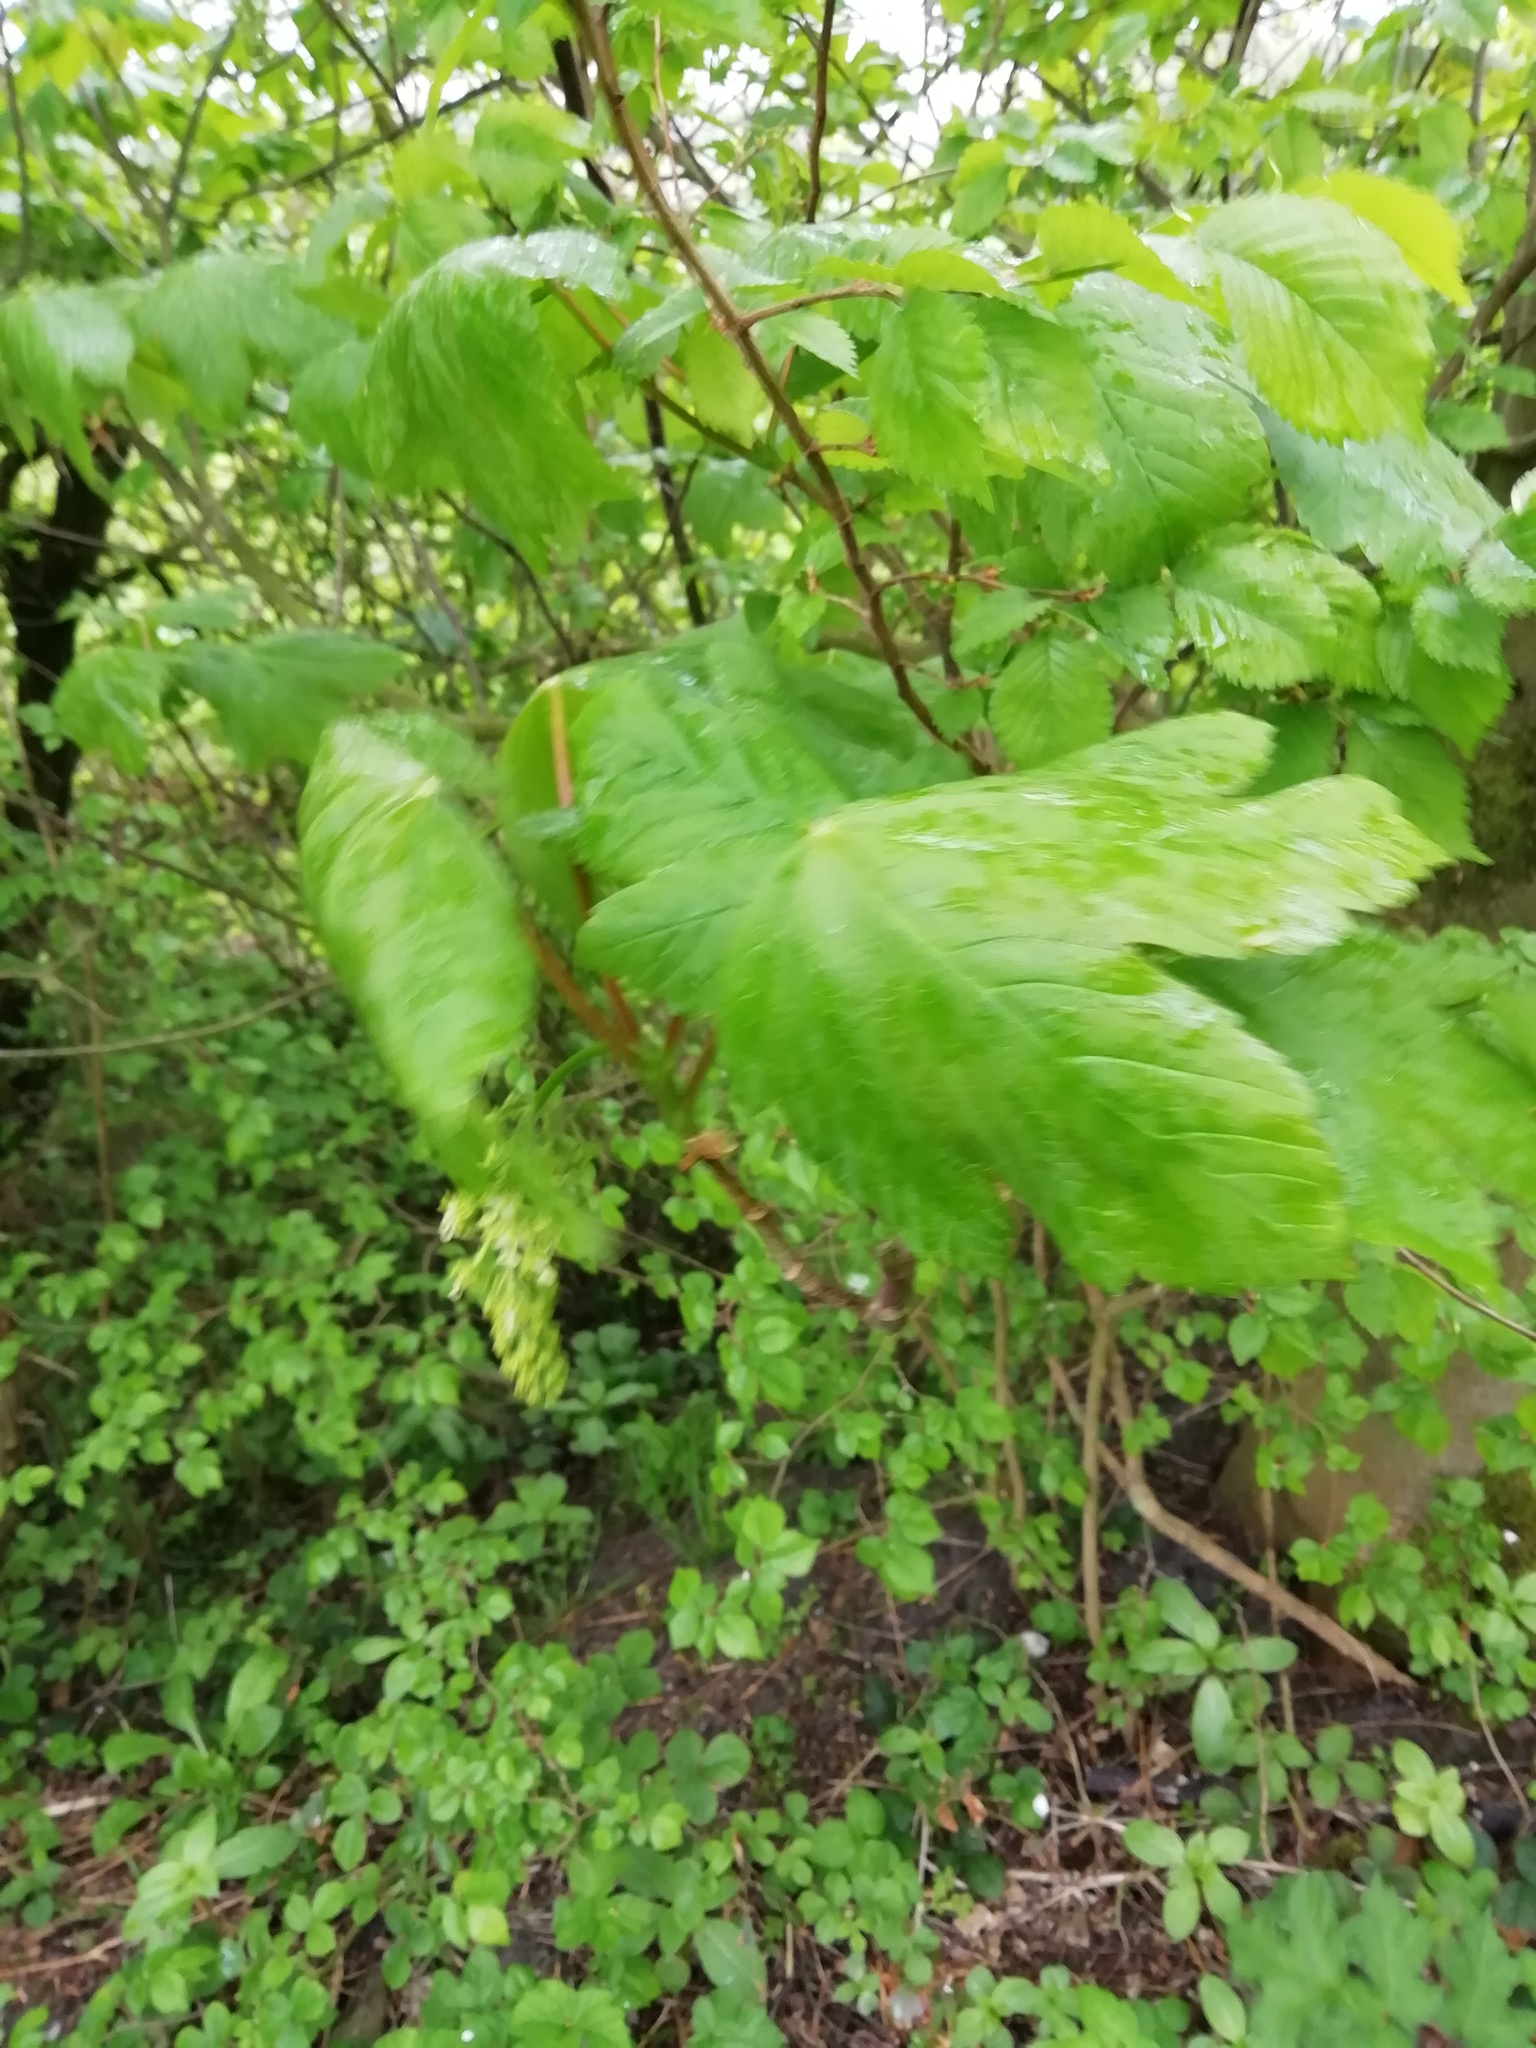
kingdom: Plantae
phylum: Tracheophyta
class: Magnoliopsida
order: Sapindales
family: Sapindaceae
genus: Acer
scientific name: Acer pseudoplatanus
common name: Sycamore
